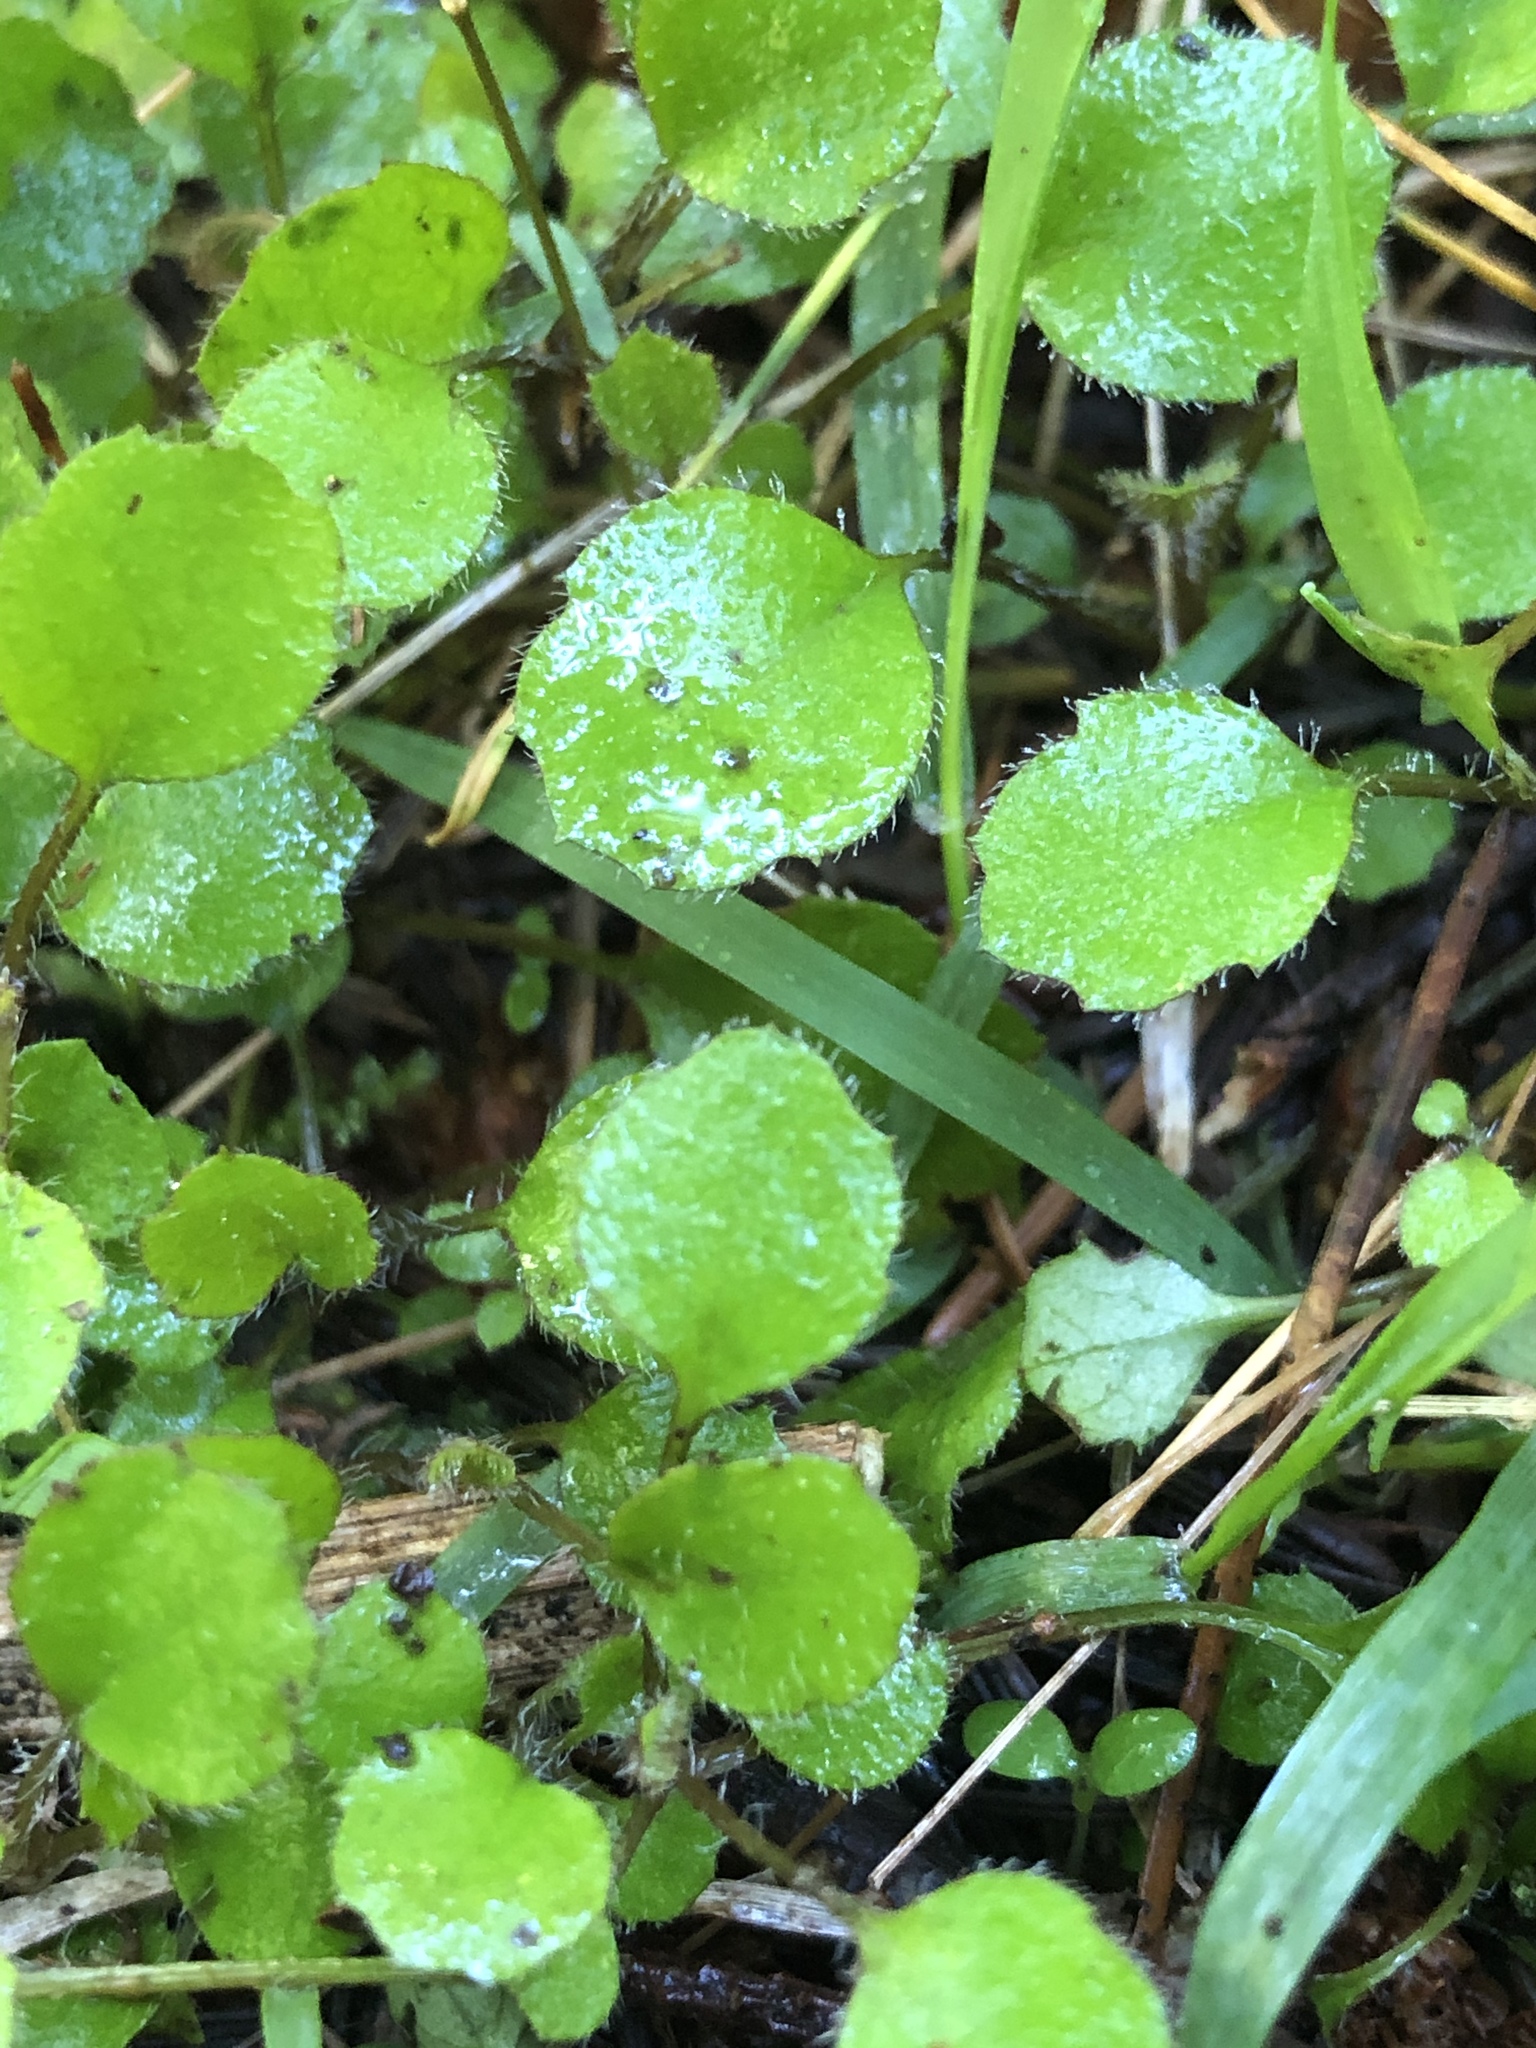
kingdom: Plantae
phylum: Tracheophyta
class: Magnoliopsida
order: Asterales
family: Asteraceae
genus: Lagenophora
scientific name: Lagenophora strangulata
